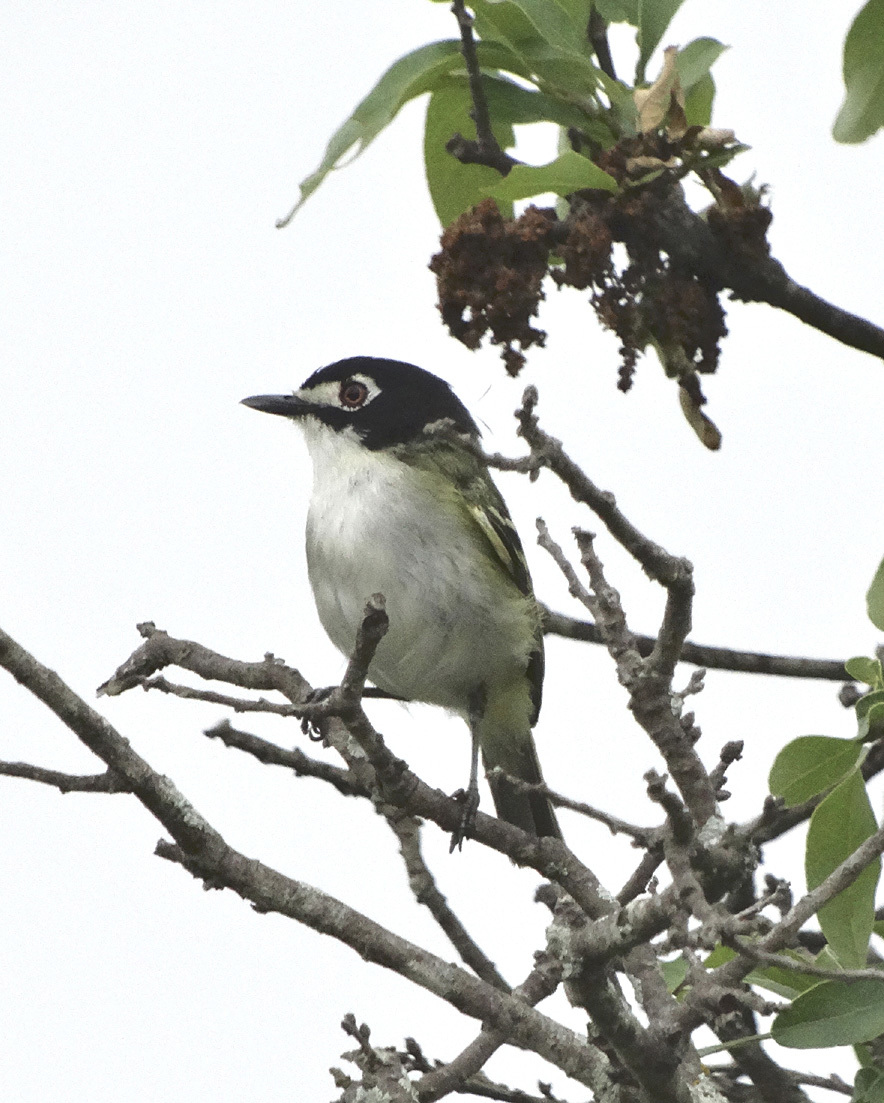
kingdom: Animalia
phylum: Chordata
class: Aves
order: Passeriformes
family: Vireonidae
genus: Vireo
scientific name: Vireo atricapilla
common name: Black-capped vireo
